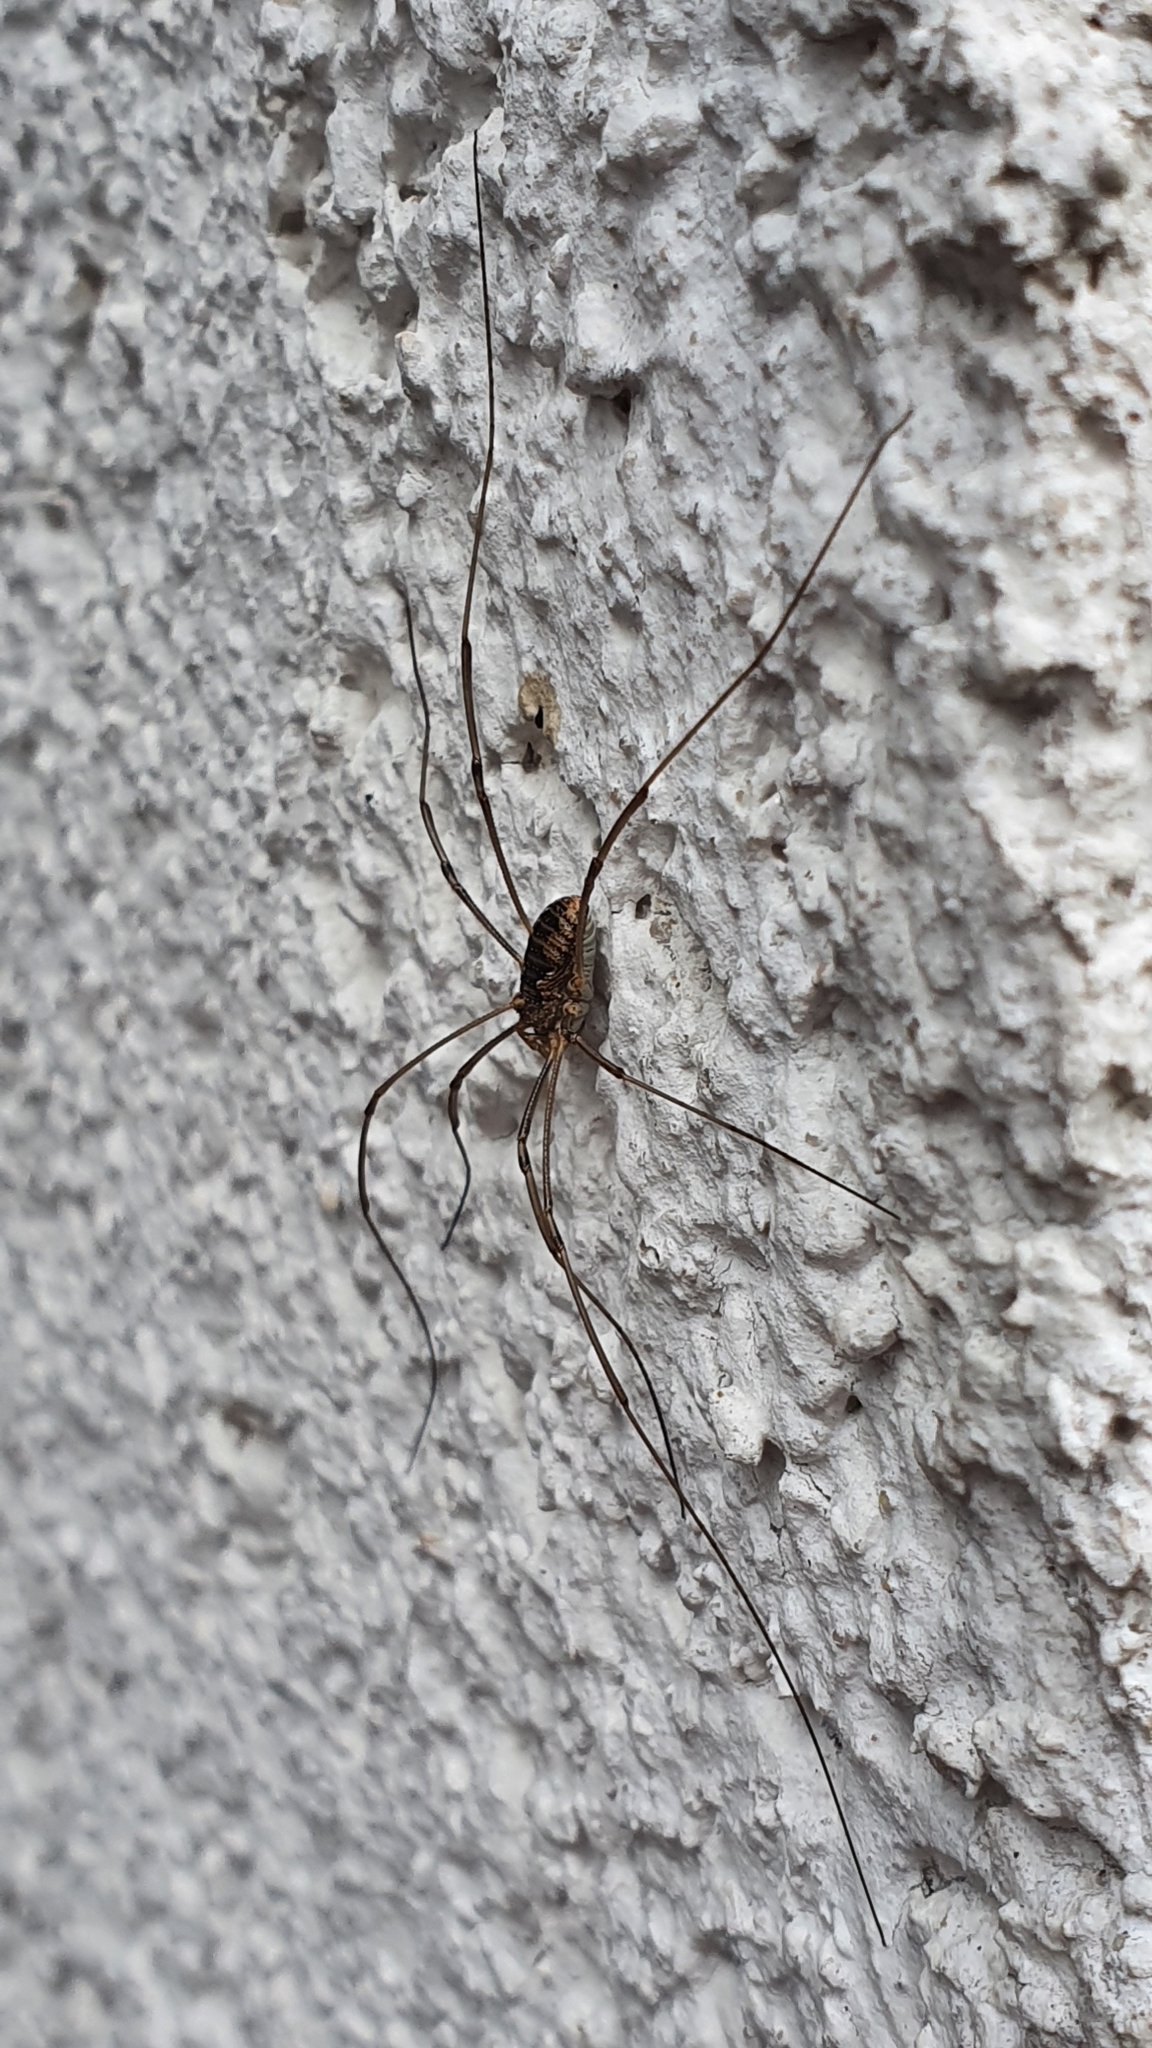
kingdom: Animalia
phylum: Arthropoda
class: Arachnida
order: Opiliones
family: Phalangiidae
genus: Phalangium
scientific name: Phalangium opilio
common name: Daddy longleg
